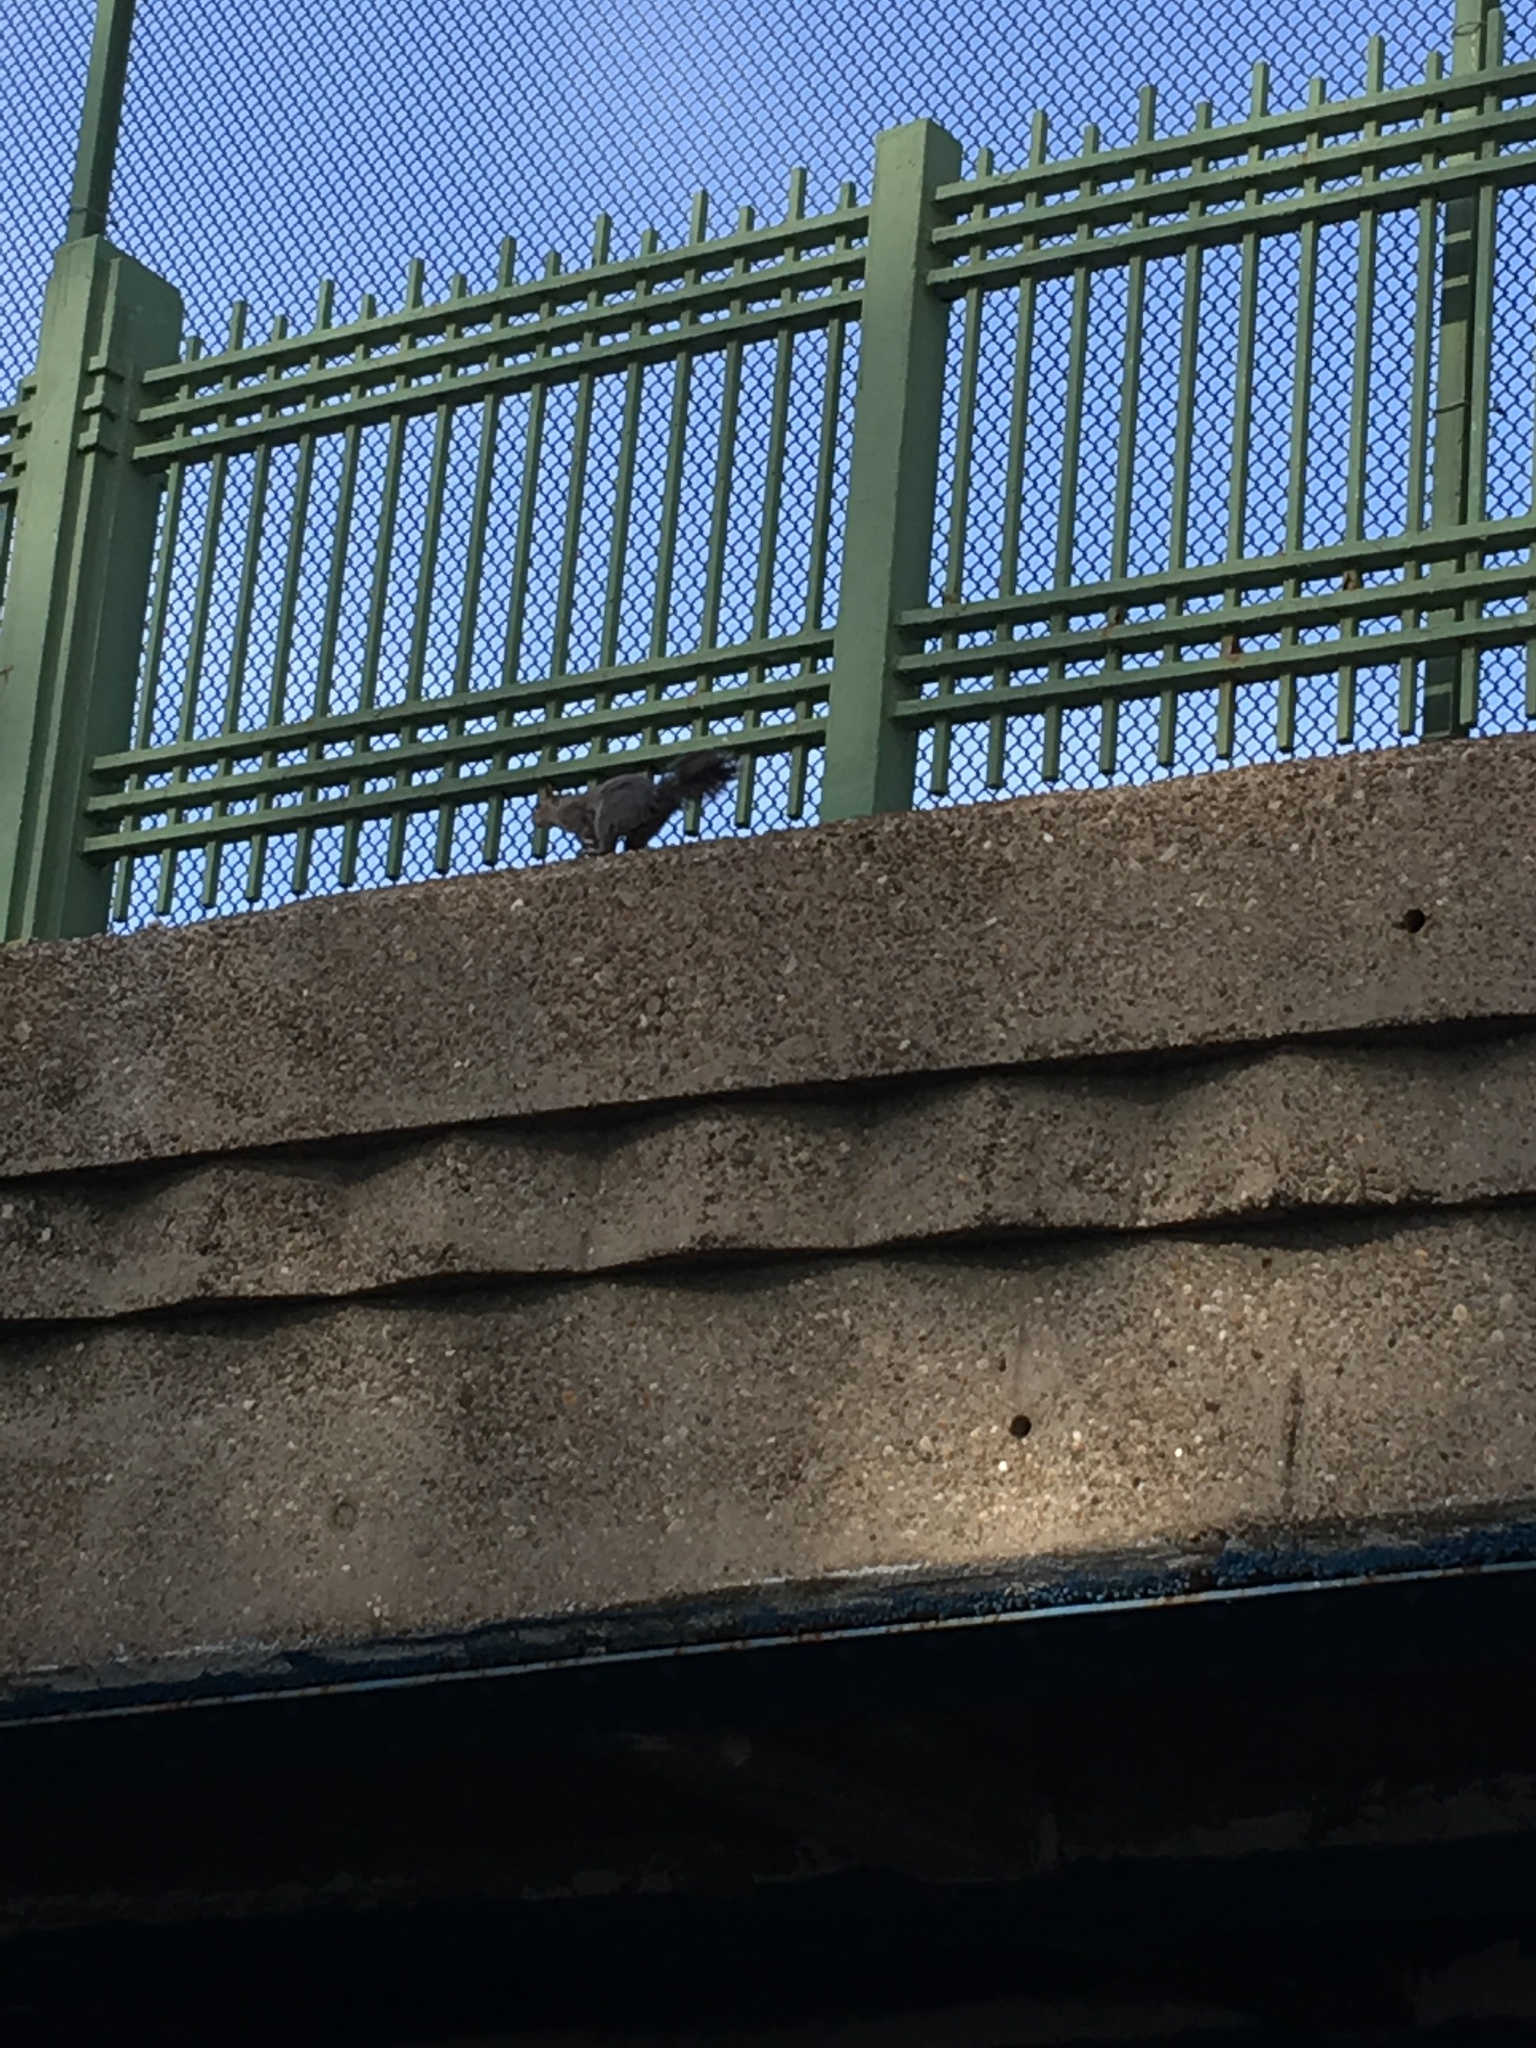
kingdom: Animalia
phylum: Chordata
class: Mammalia
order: Rodentia
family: Sciuridae
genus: Sciurus
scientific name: Sciurus carolinensis
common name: Eastern gray squirrel
